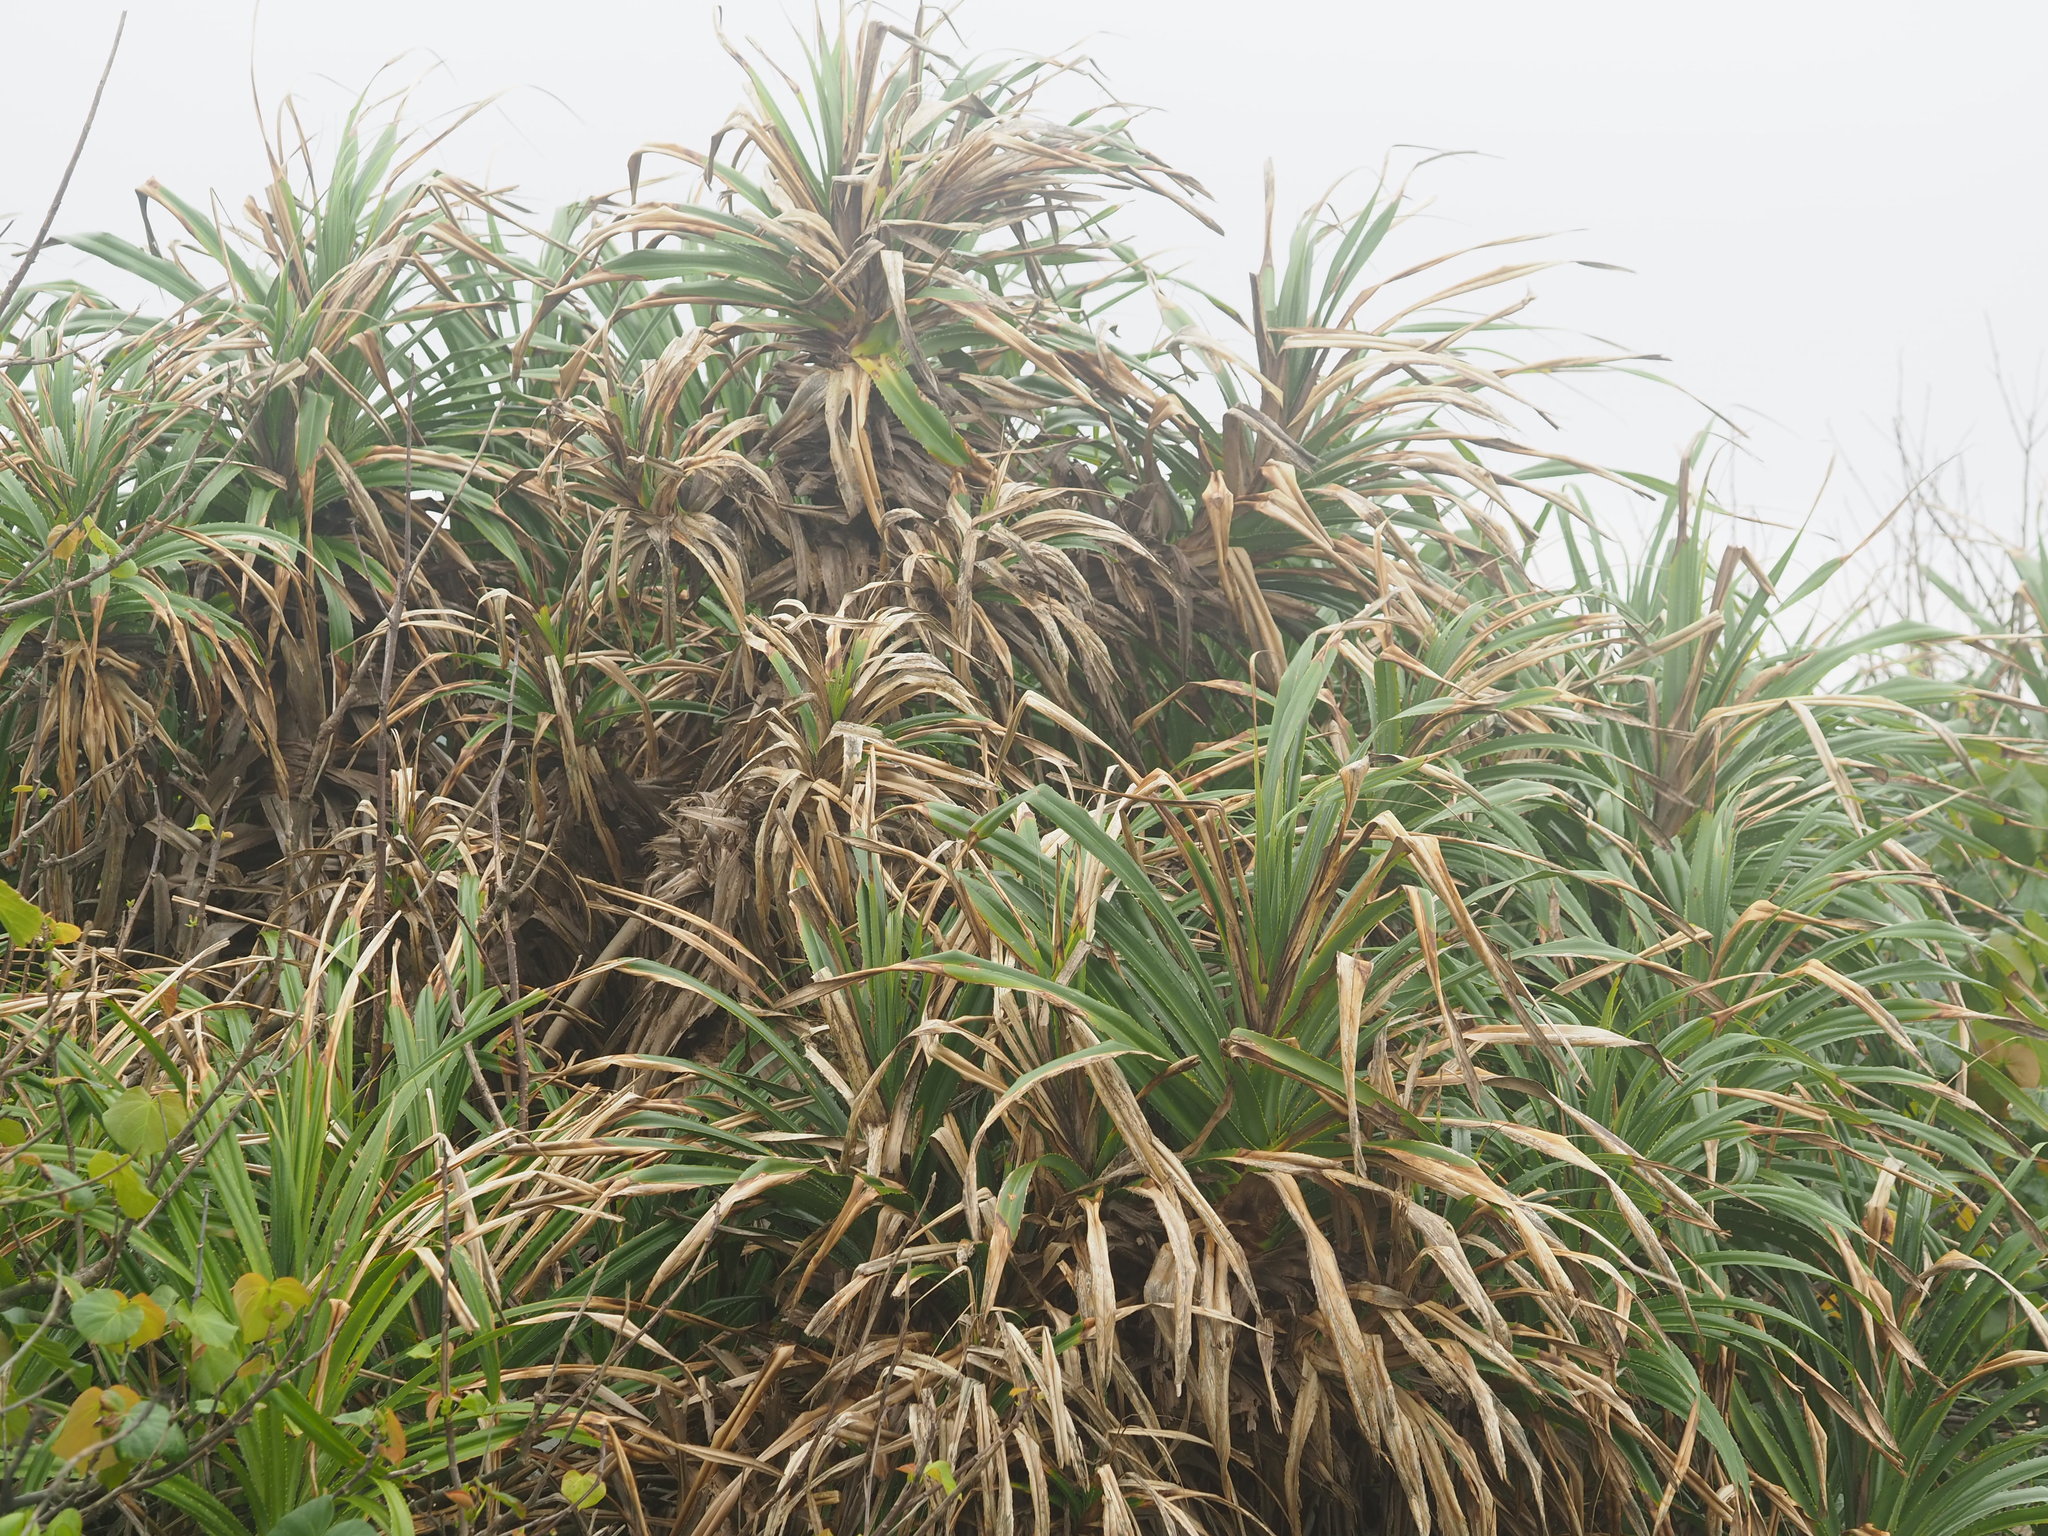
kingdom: Plantae
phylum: Tracheophyta
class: Liliopsida
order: Pandanales
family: Pandanaceae
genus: Pandanus
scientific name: Pandanus odorifer
